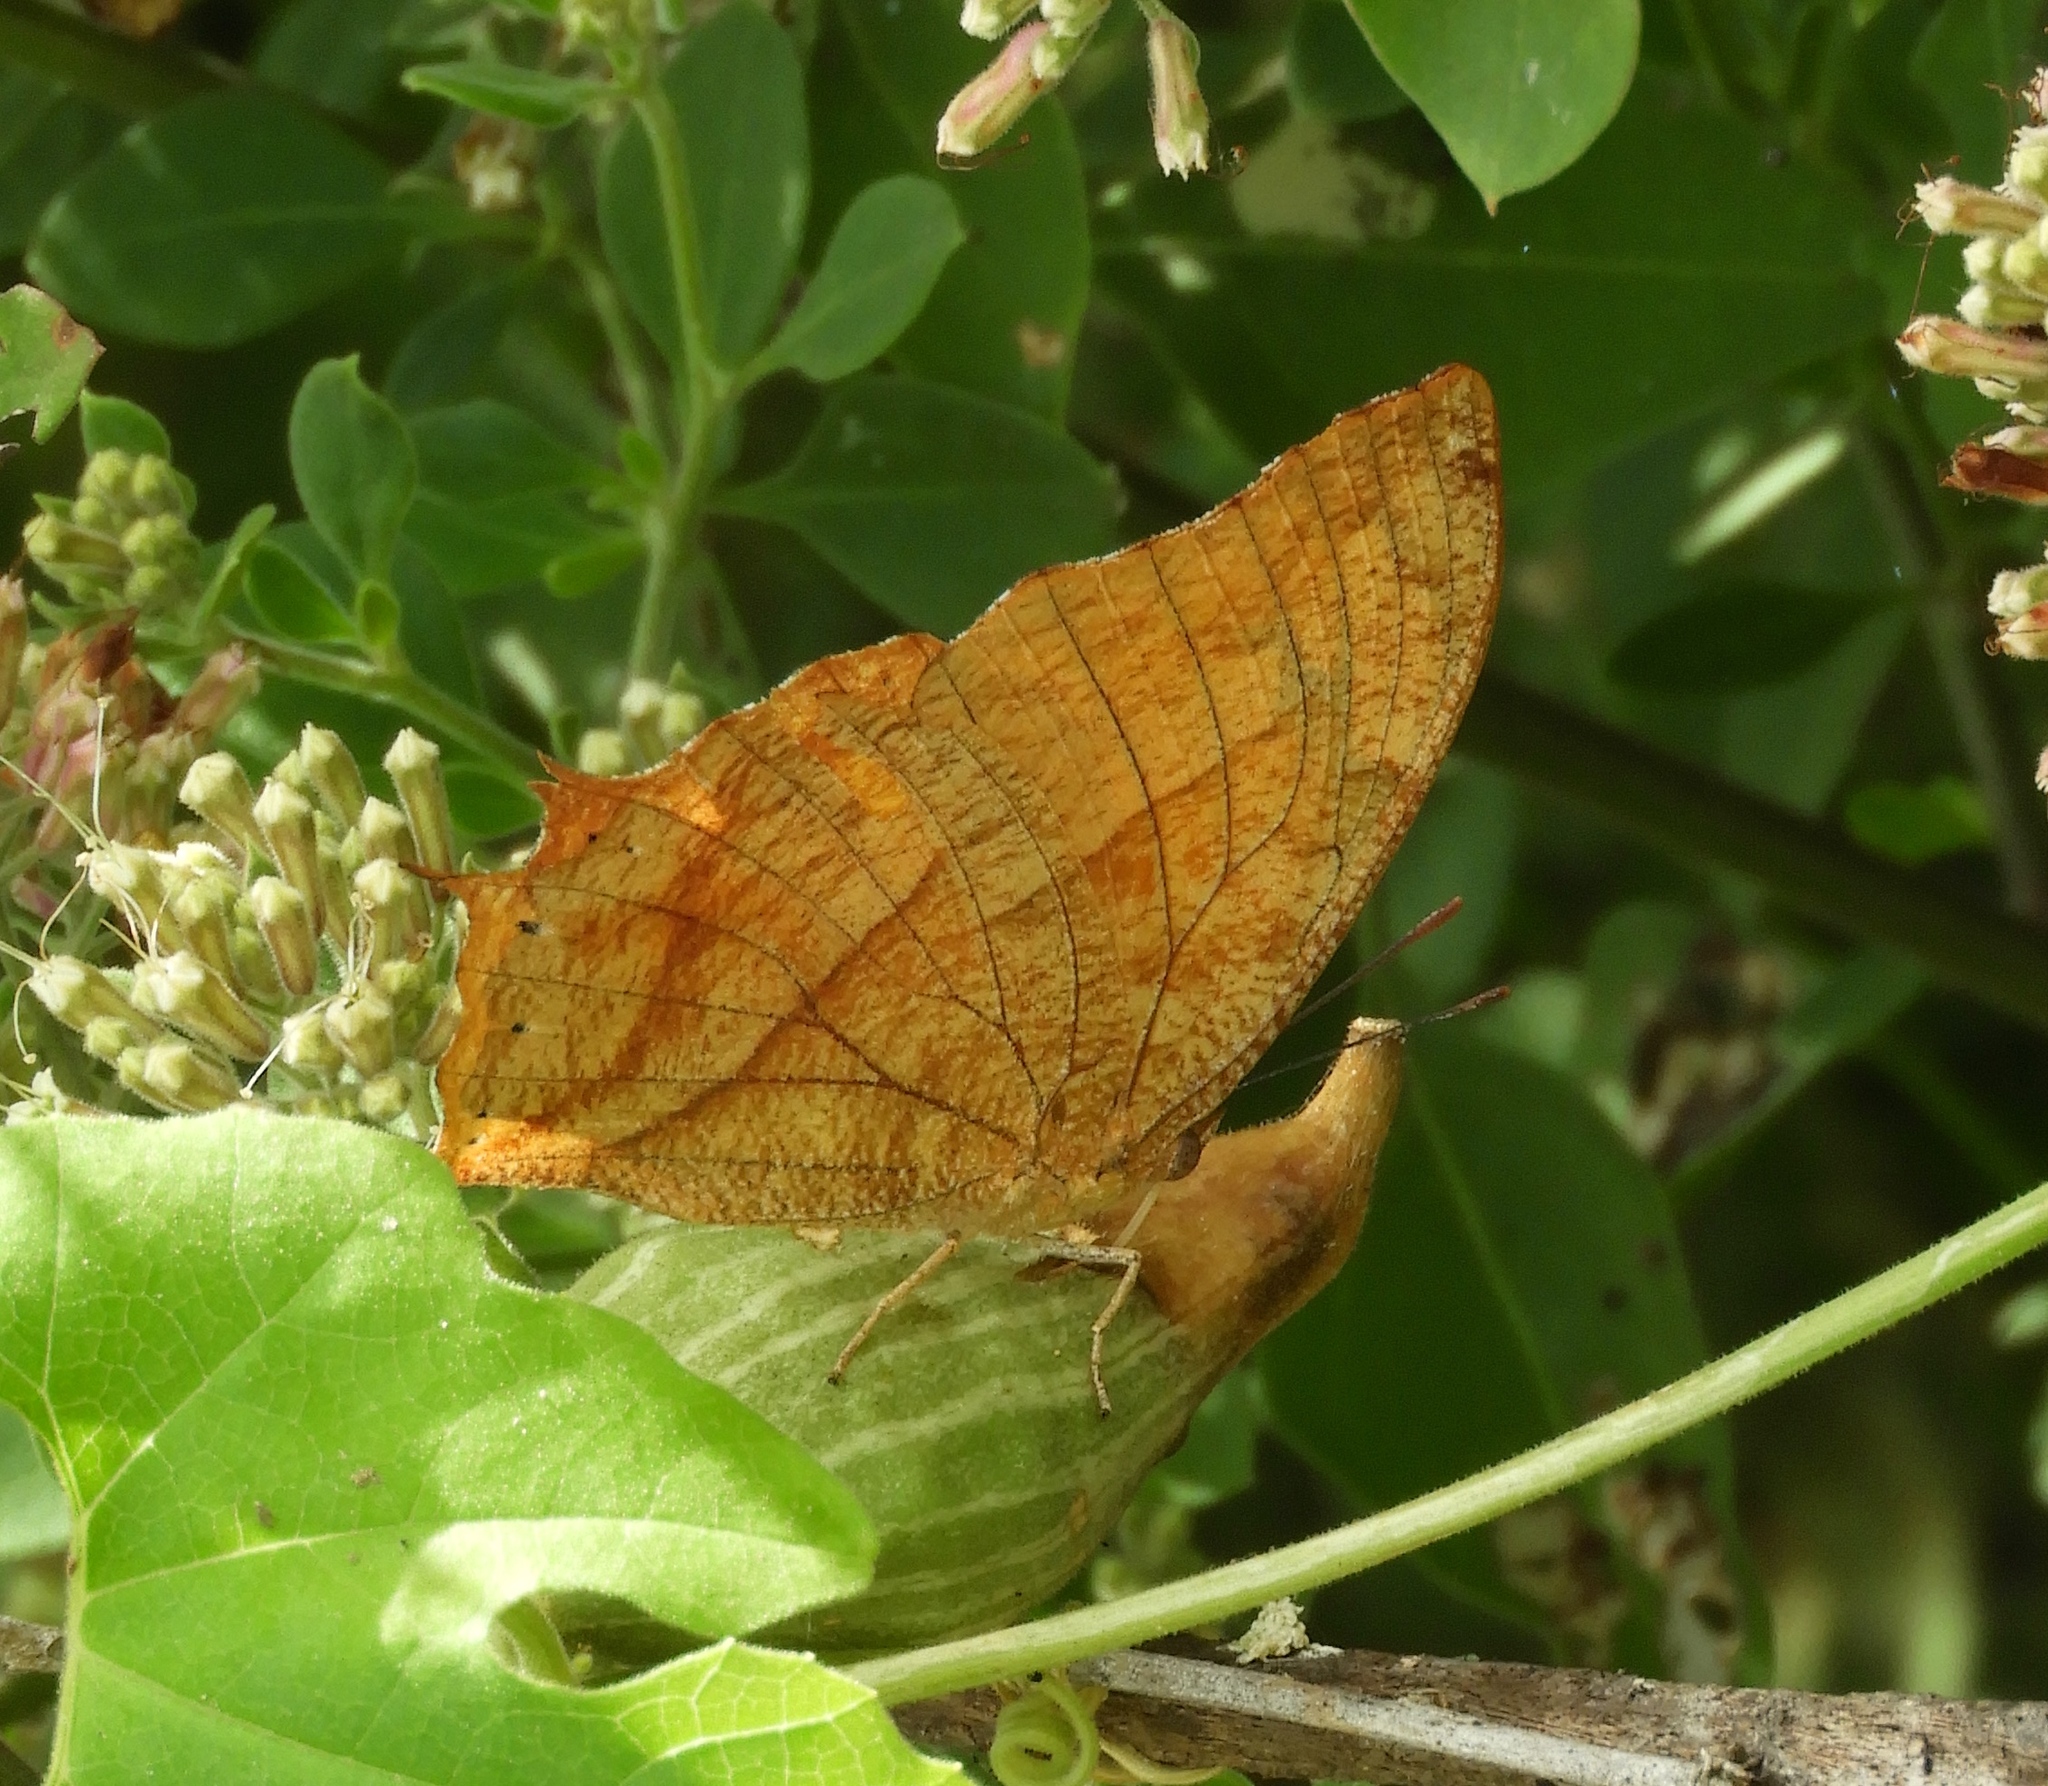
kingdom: Animalia
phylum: Arthropoda
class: Insecta
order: Lepidoptera
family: Nymphalidae
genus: Fountainea
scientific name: Fountainea
